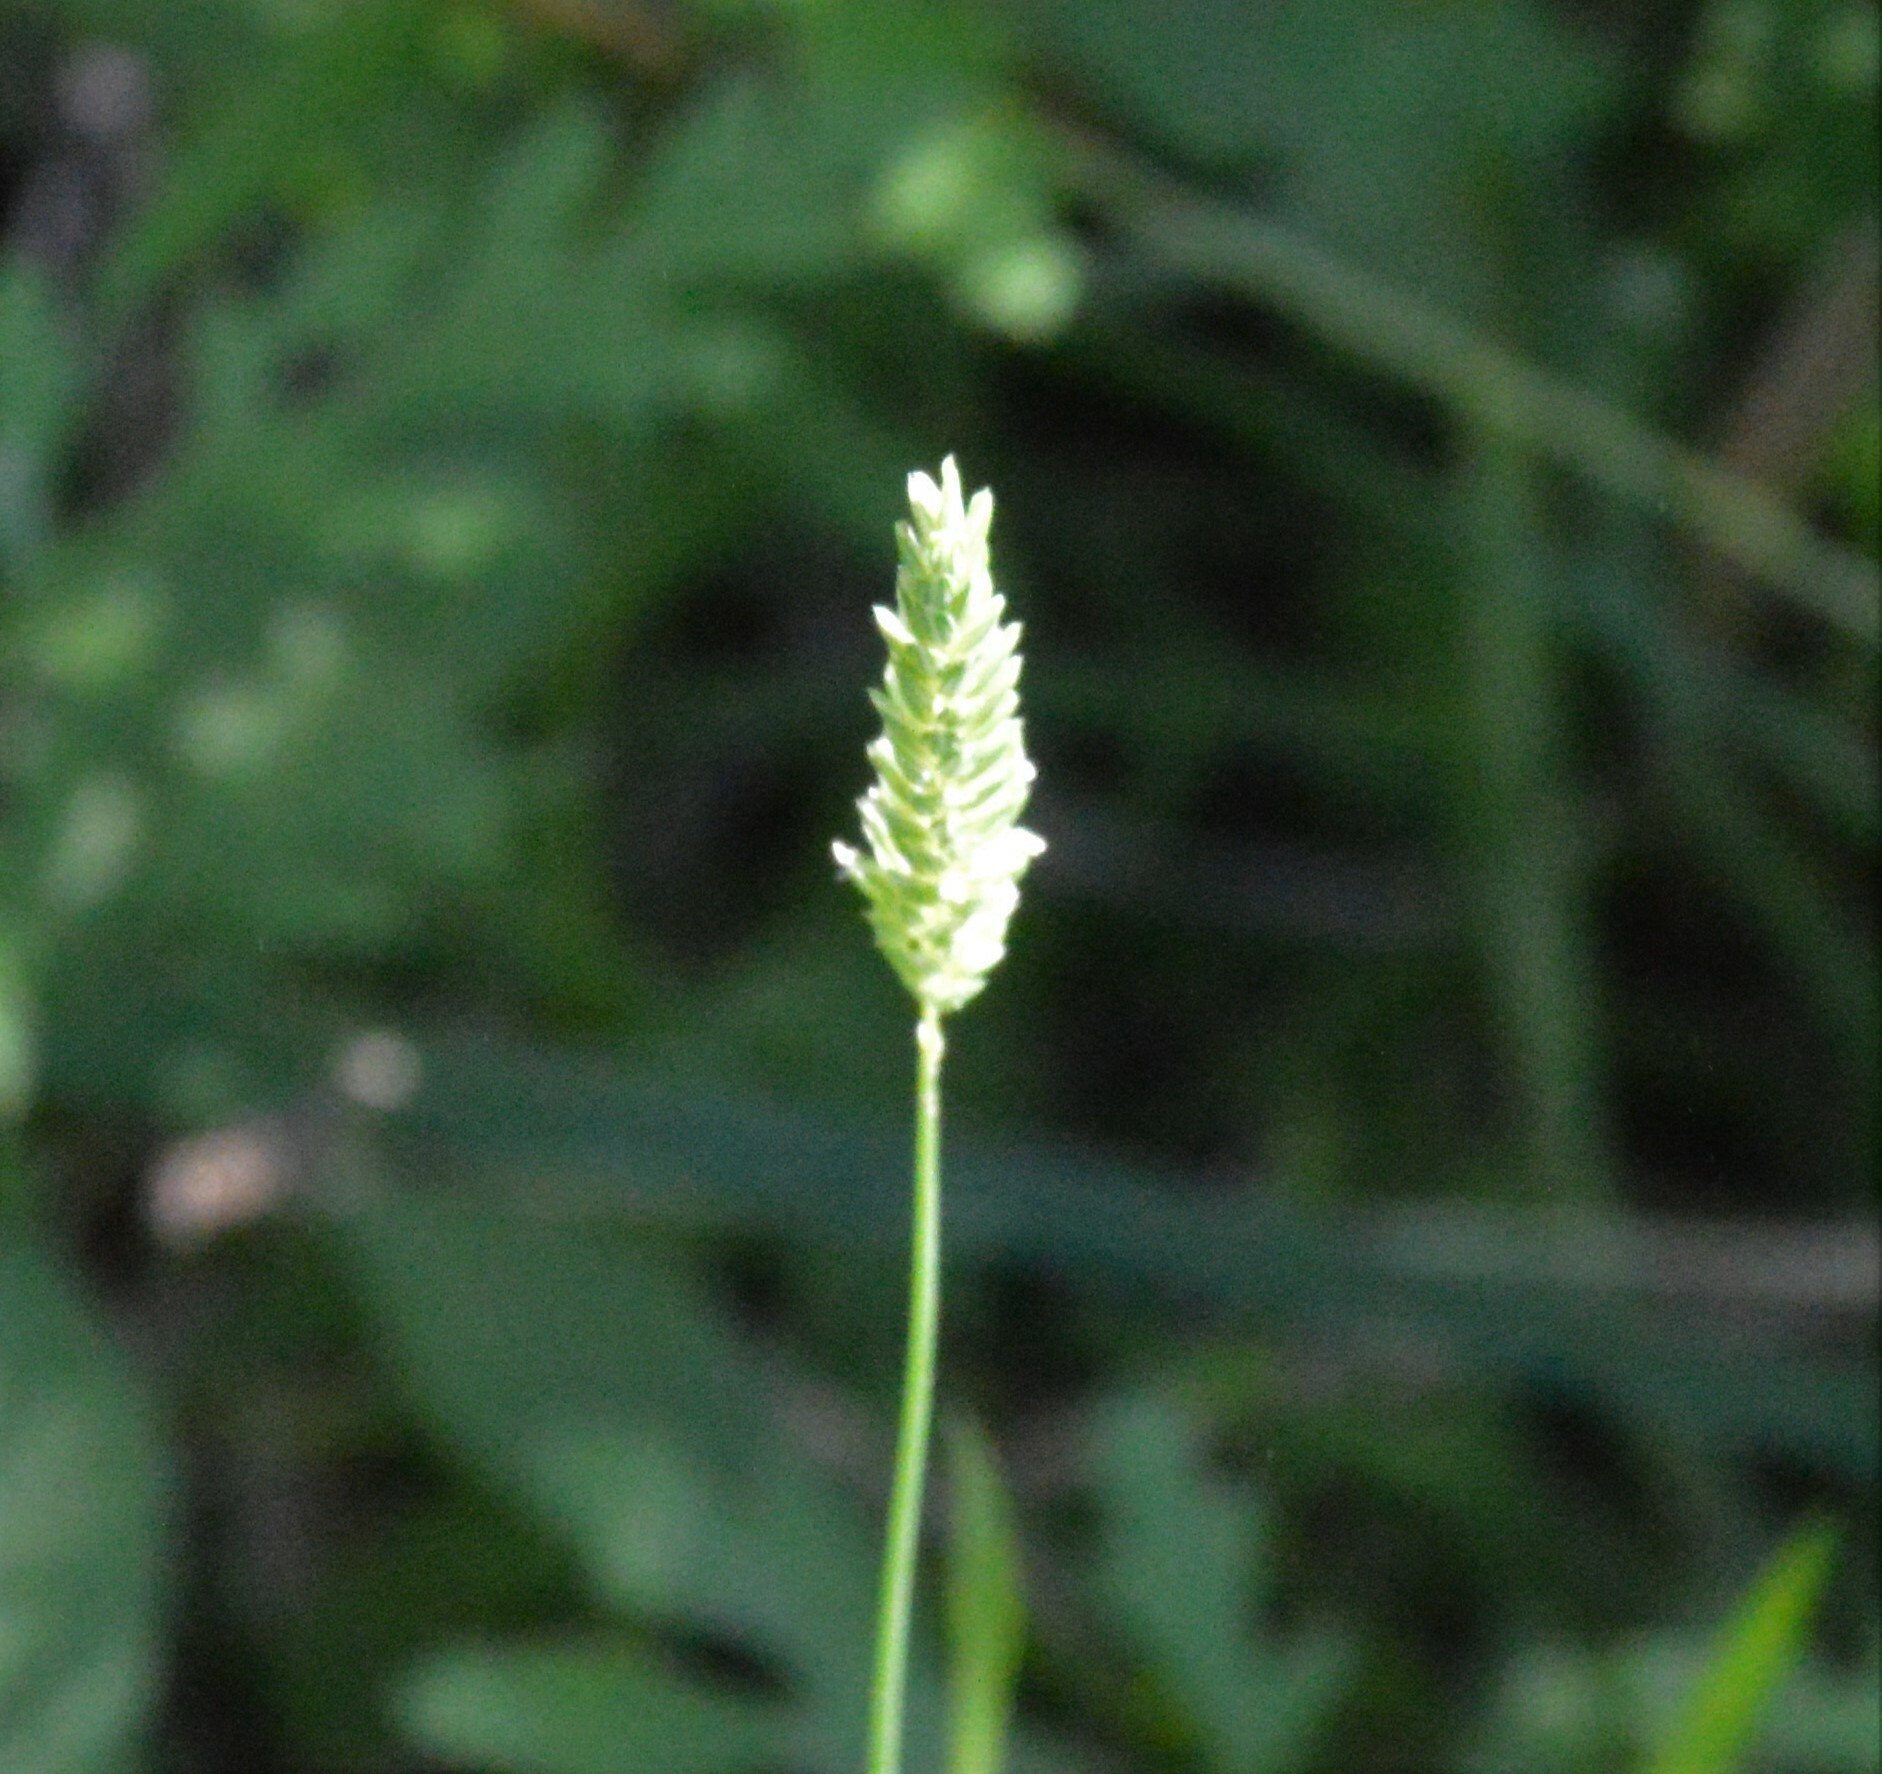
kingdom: Plantae
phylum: Tracheophyta
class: Liliopsida
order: Poales
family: Poaceae
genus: Phalaris
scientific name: Phalaris caroliniana
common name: May grass
